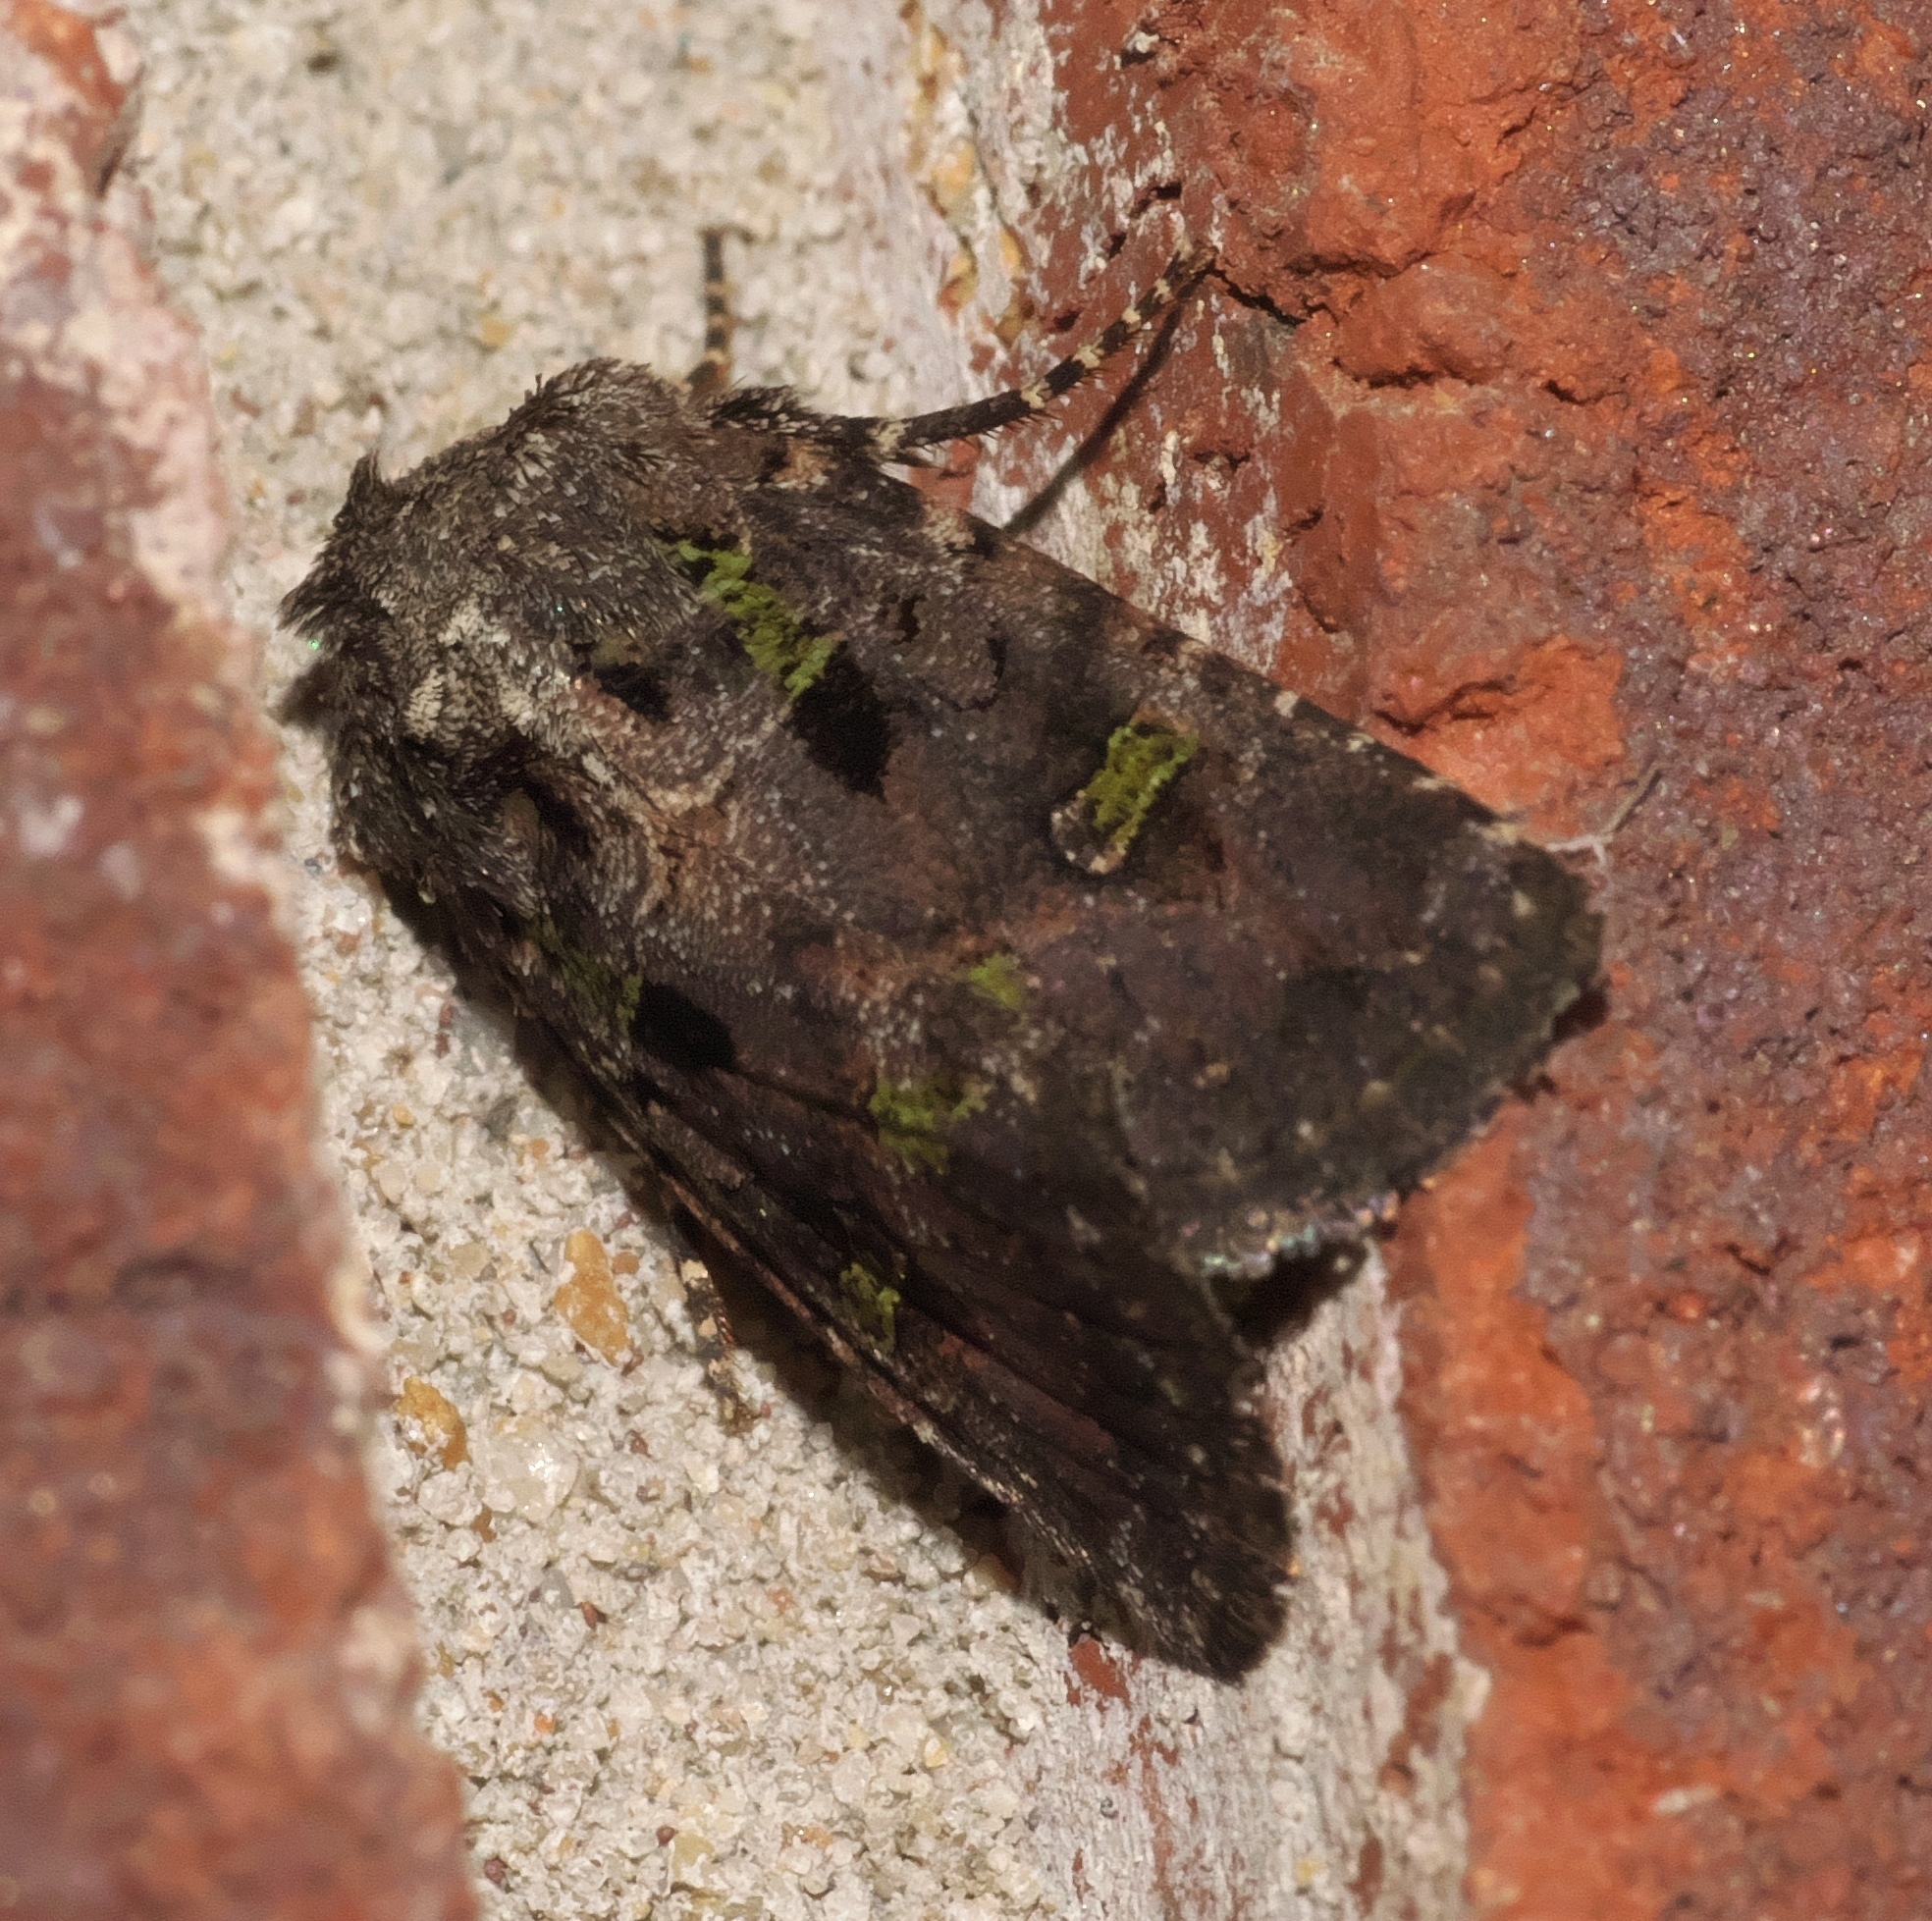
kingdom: Animalia
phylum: Arthropoda
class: Insecta
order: Lepidoptera
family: Noctuidae
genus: Lacinipolia
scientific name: Lacinipolia renigera
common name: Kidney-spotted minor
